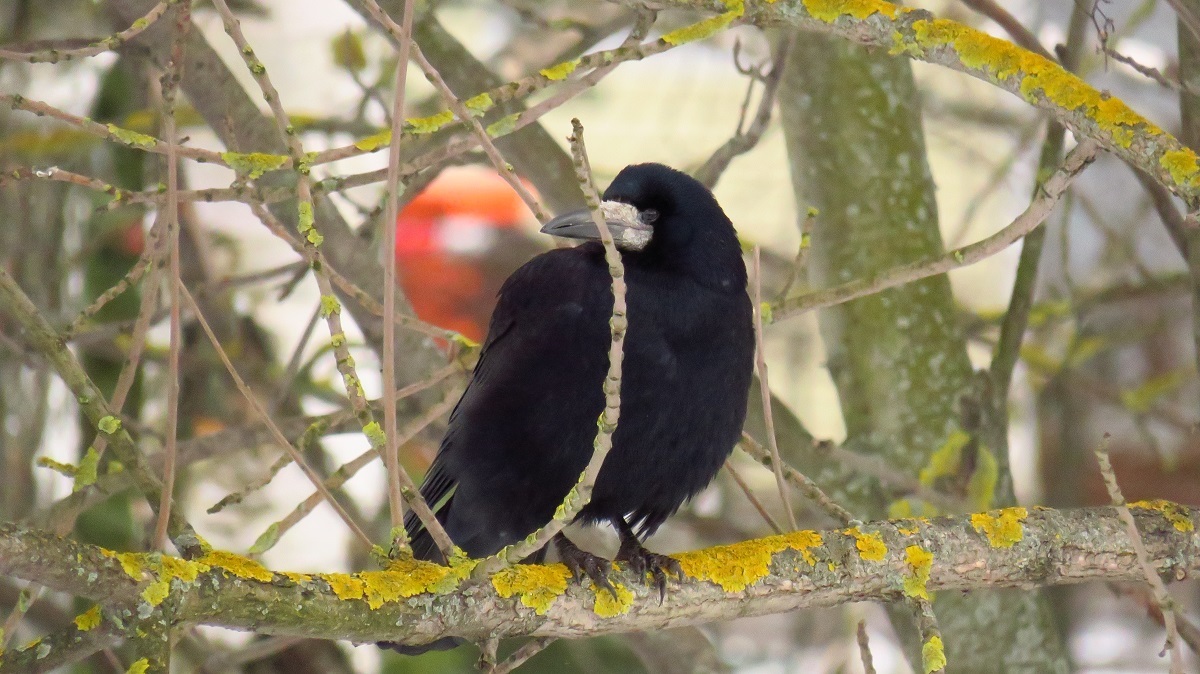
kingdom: Animalia
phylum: Chordata
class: Aves
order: Passeriformes
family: Corvidae
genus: Corvus
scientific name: Corvus frugilegus
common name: Rook
